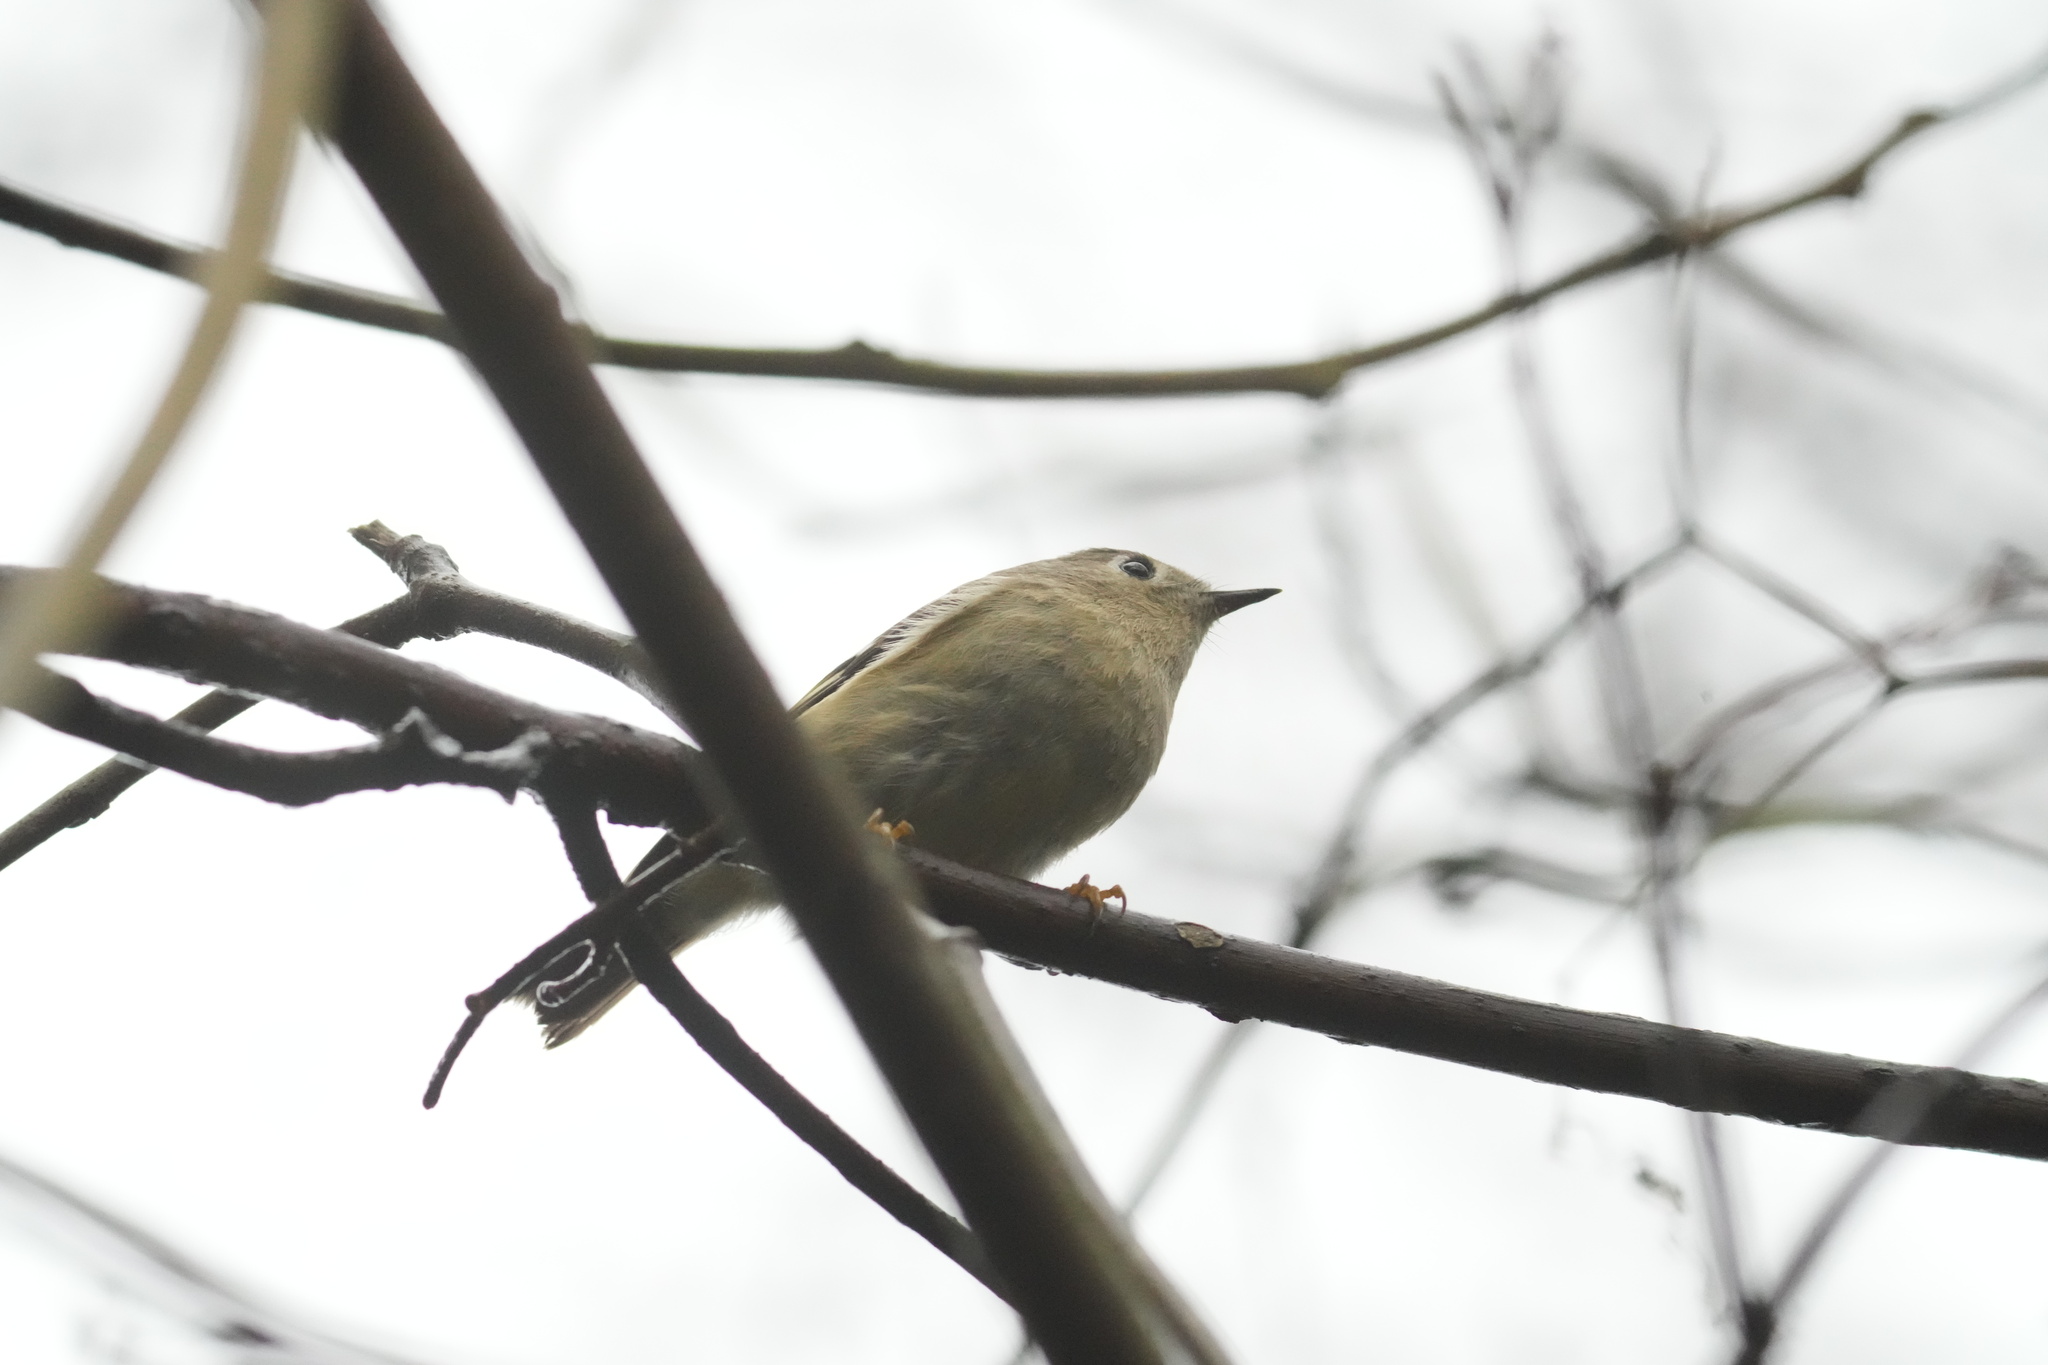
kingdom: Animalia
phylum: Chordata
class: Aves
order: Passeriformes
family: Regulidae
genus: Regulus
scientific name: Regulus calendula
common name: Ruby-crowned kinglet
